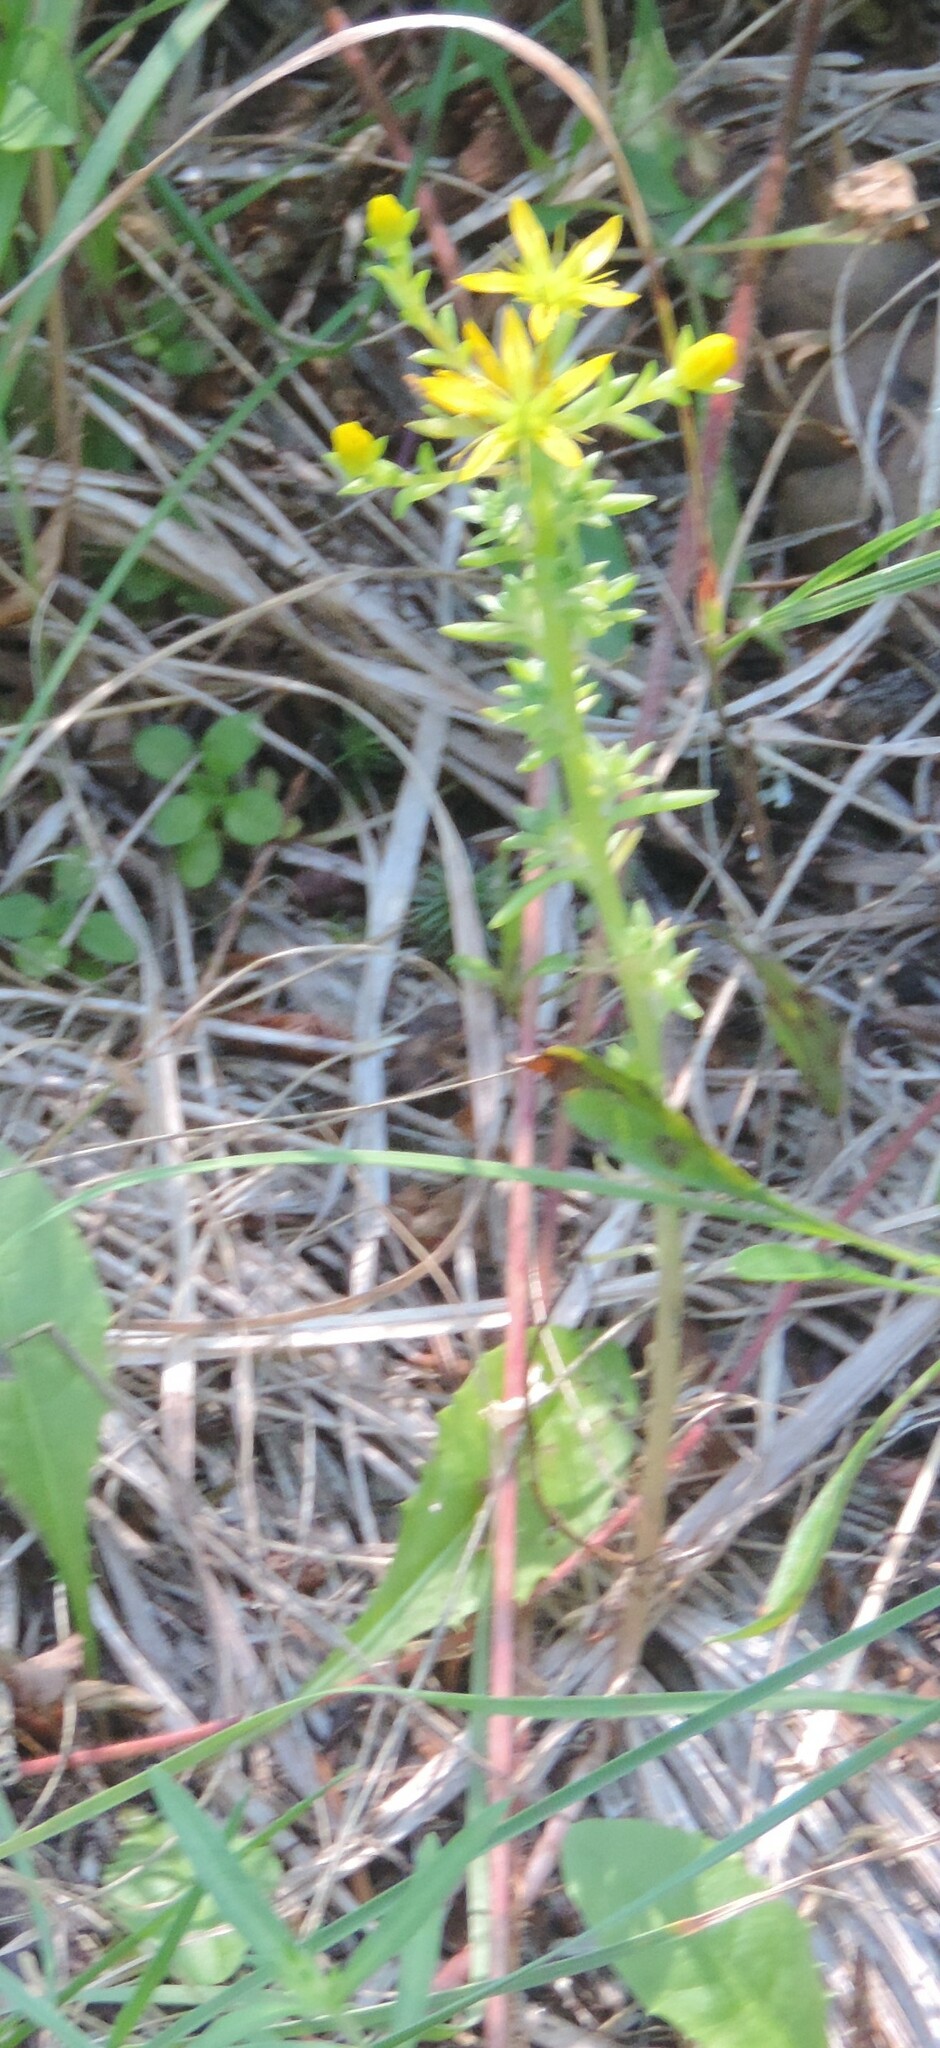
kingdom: Plantae
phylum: Tracheophyta
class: Magnoliopsida
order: Saxifragales
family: Crassulaceae
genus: Sedum
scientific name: Sedum stenopetalum
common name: Narrow-petaled stonecrop
